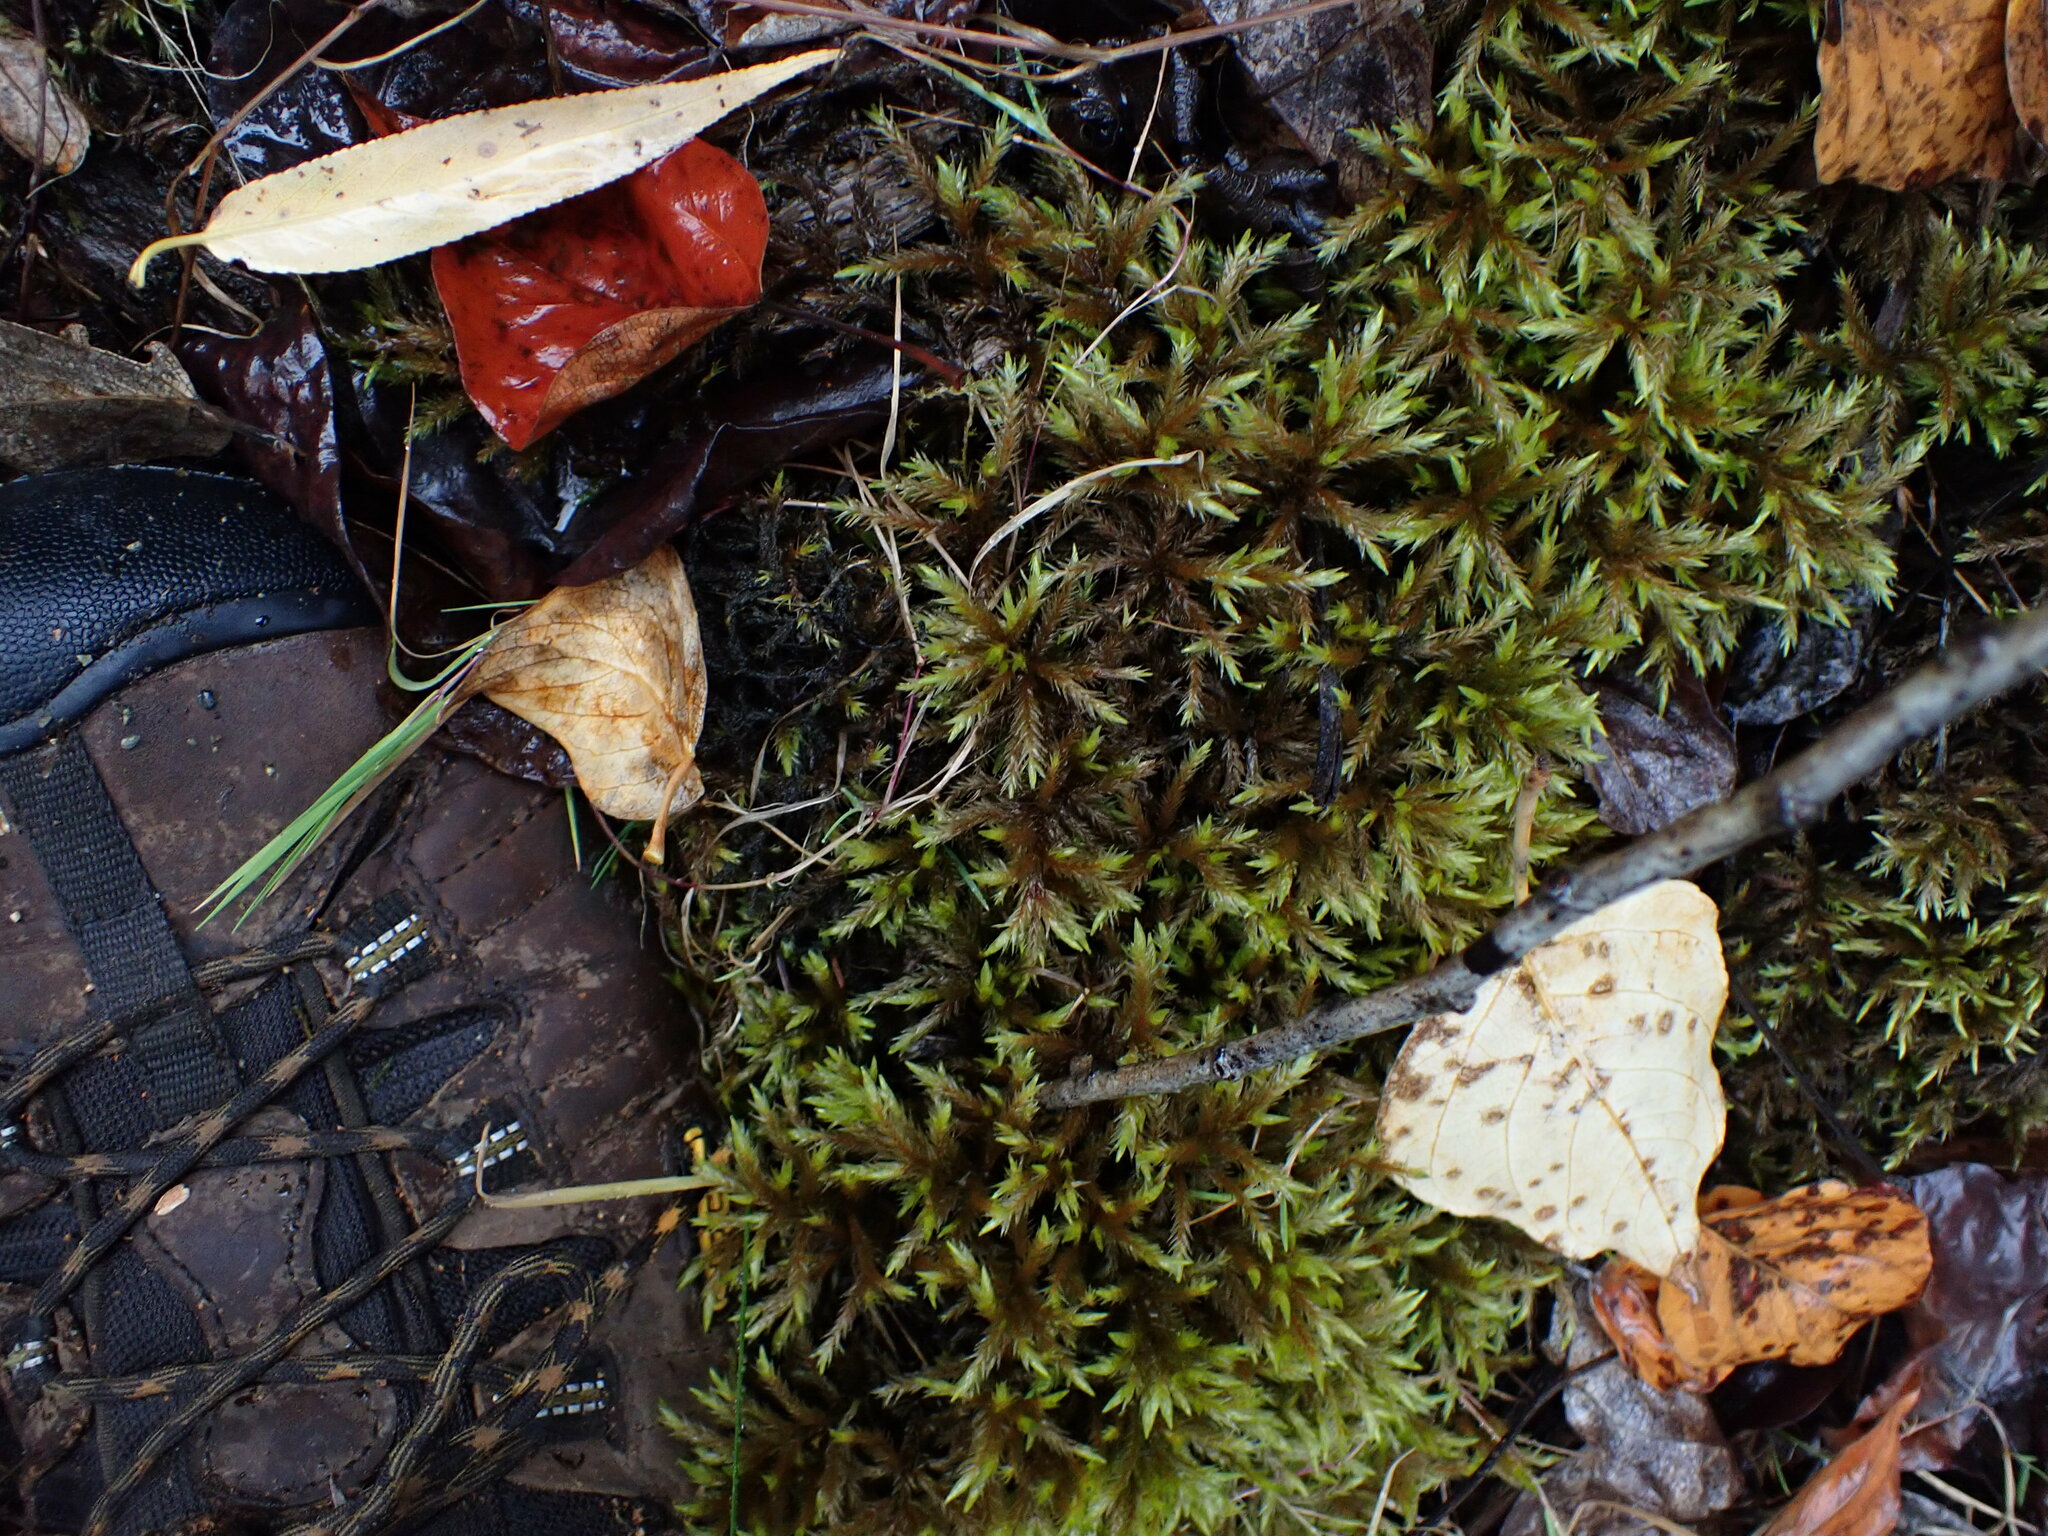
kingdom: Plantae
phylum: Bryophyta
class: Bryopsida
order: Hypnales
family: Climaciaceae
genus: Climacium
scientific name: Climacium dendroides
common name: Northern tree moss
